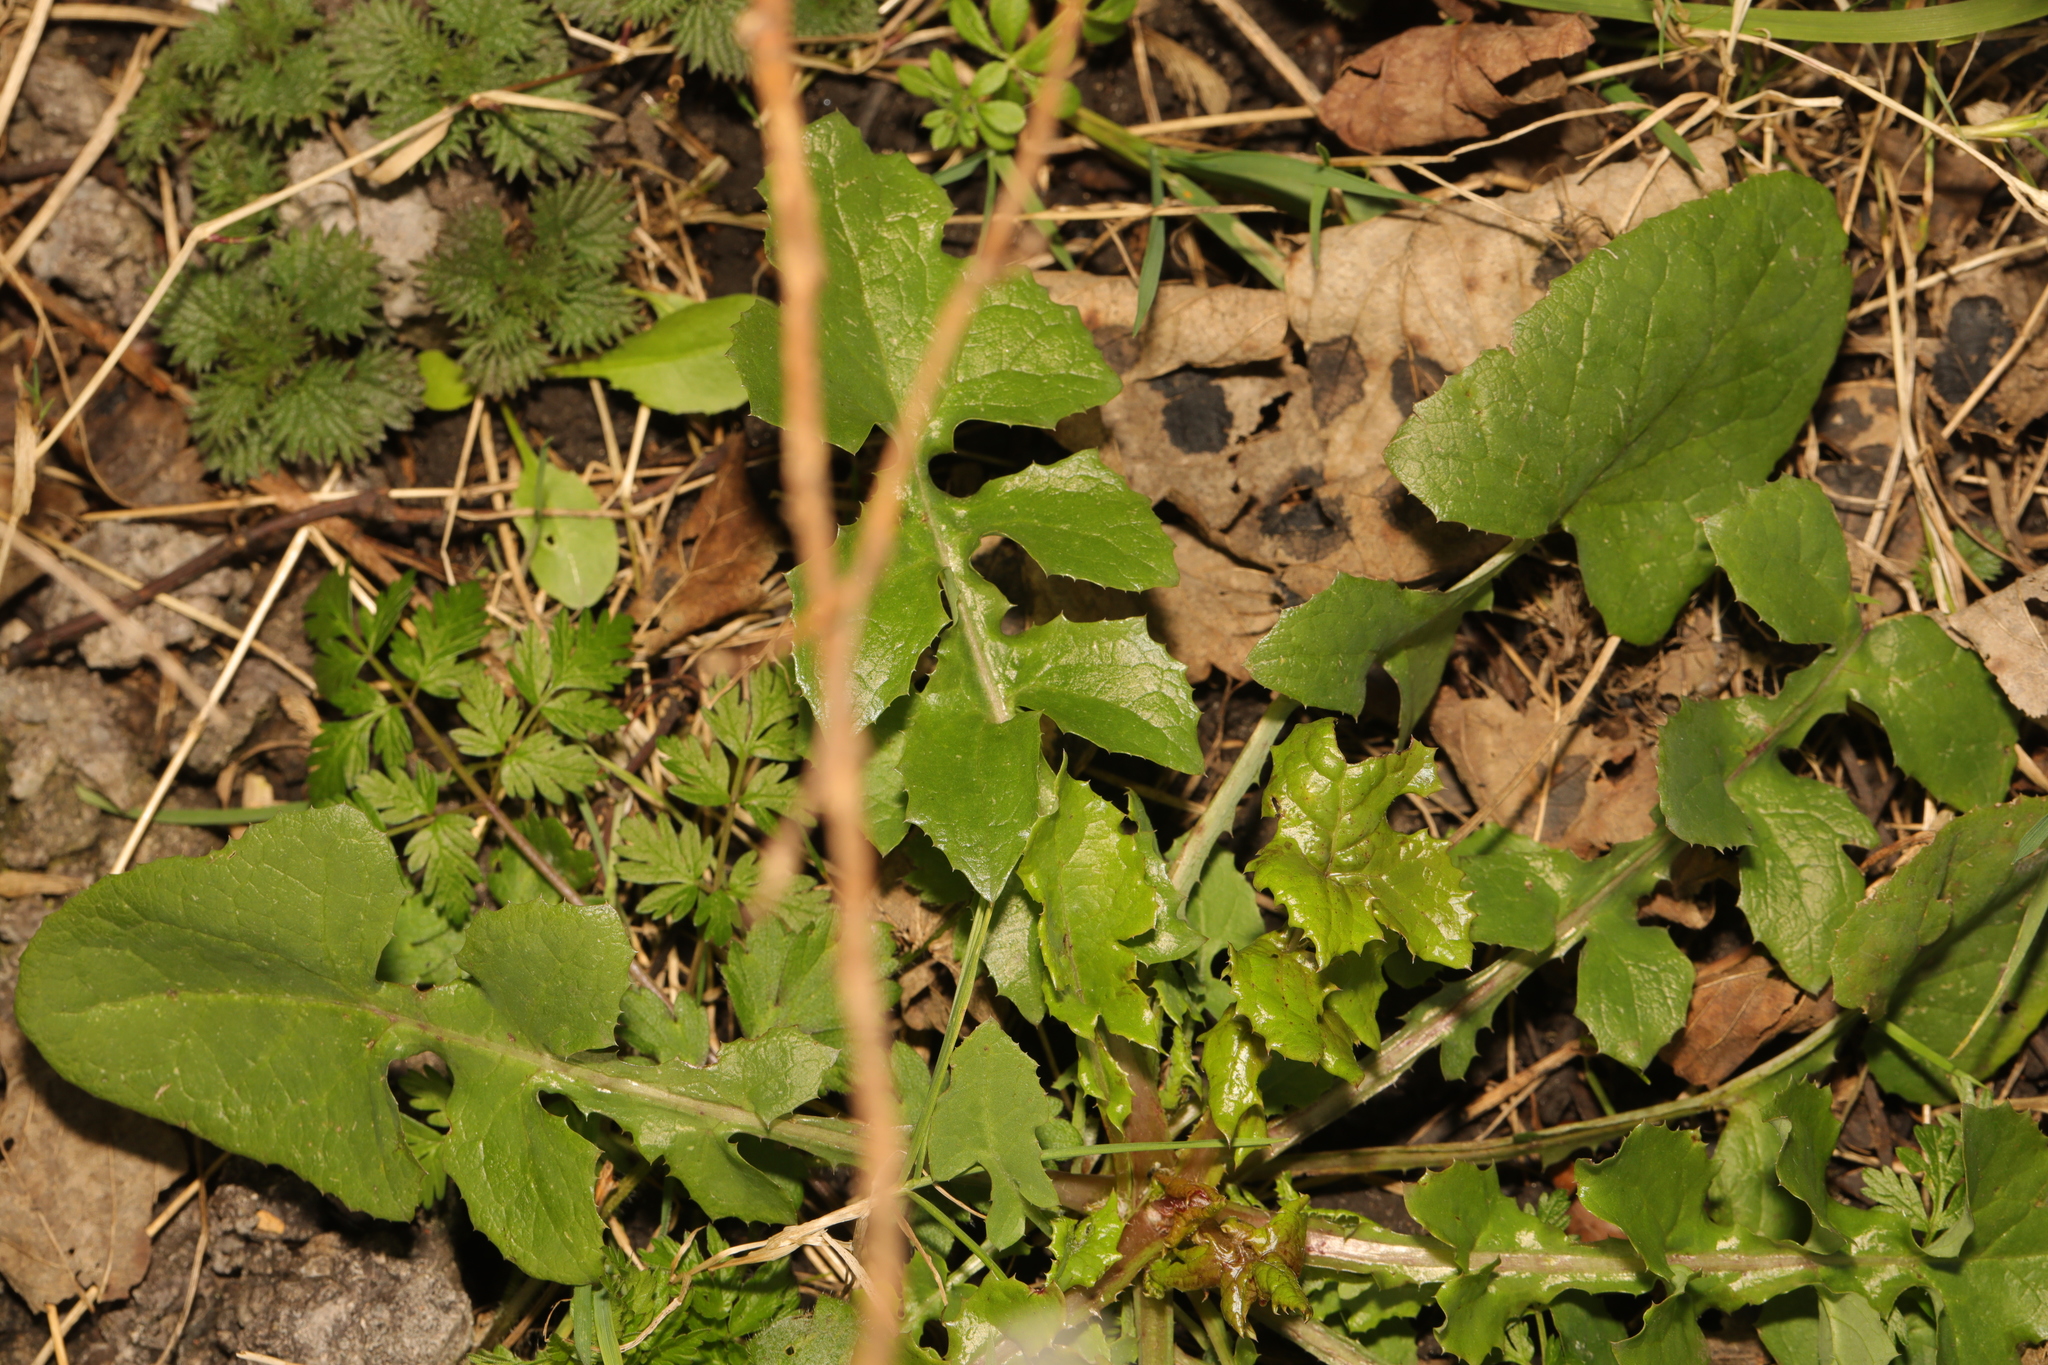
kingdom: Plantae
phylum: Tracheophyta
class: Magnoliopsida
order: Asterales
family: Asteraceae
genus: Sonchus
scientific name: Sonchus oleraceus
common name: Common sowthistle
